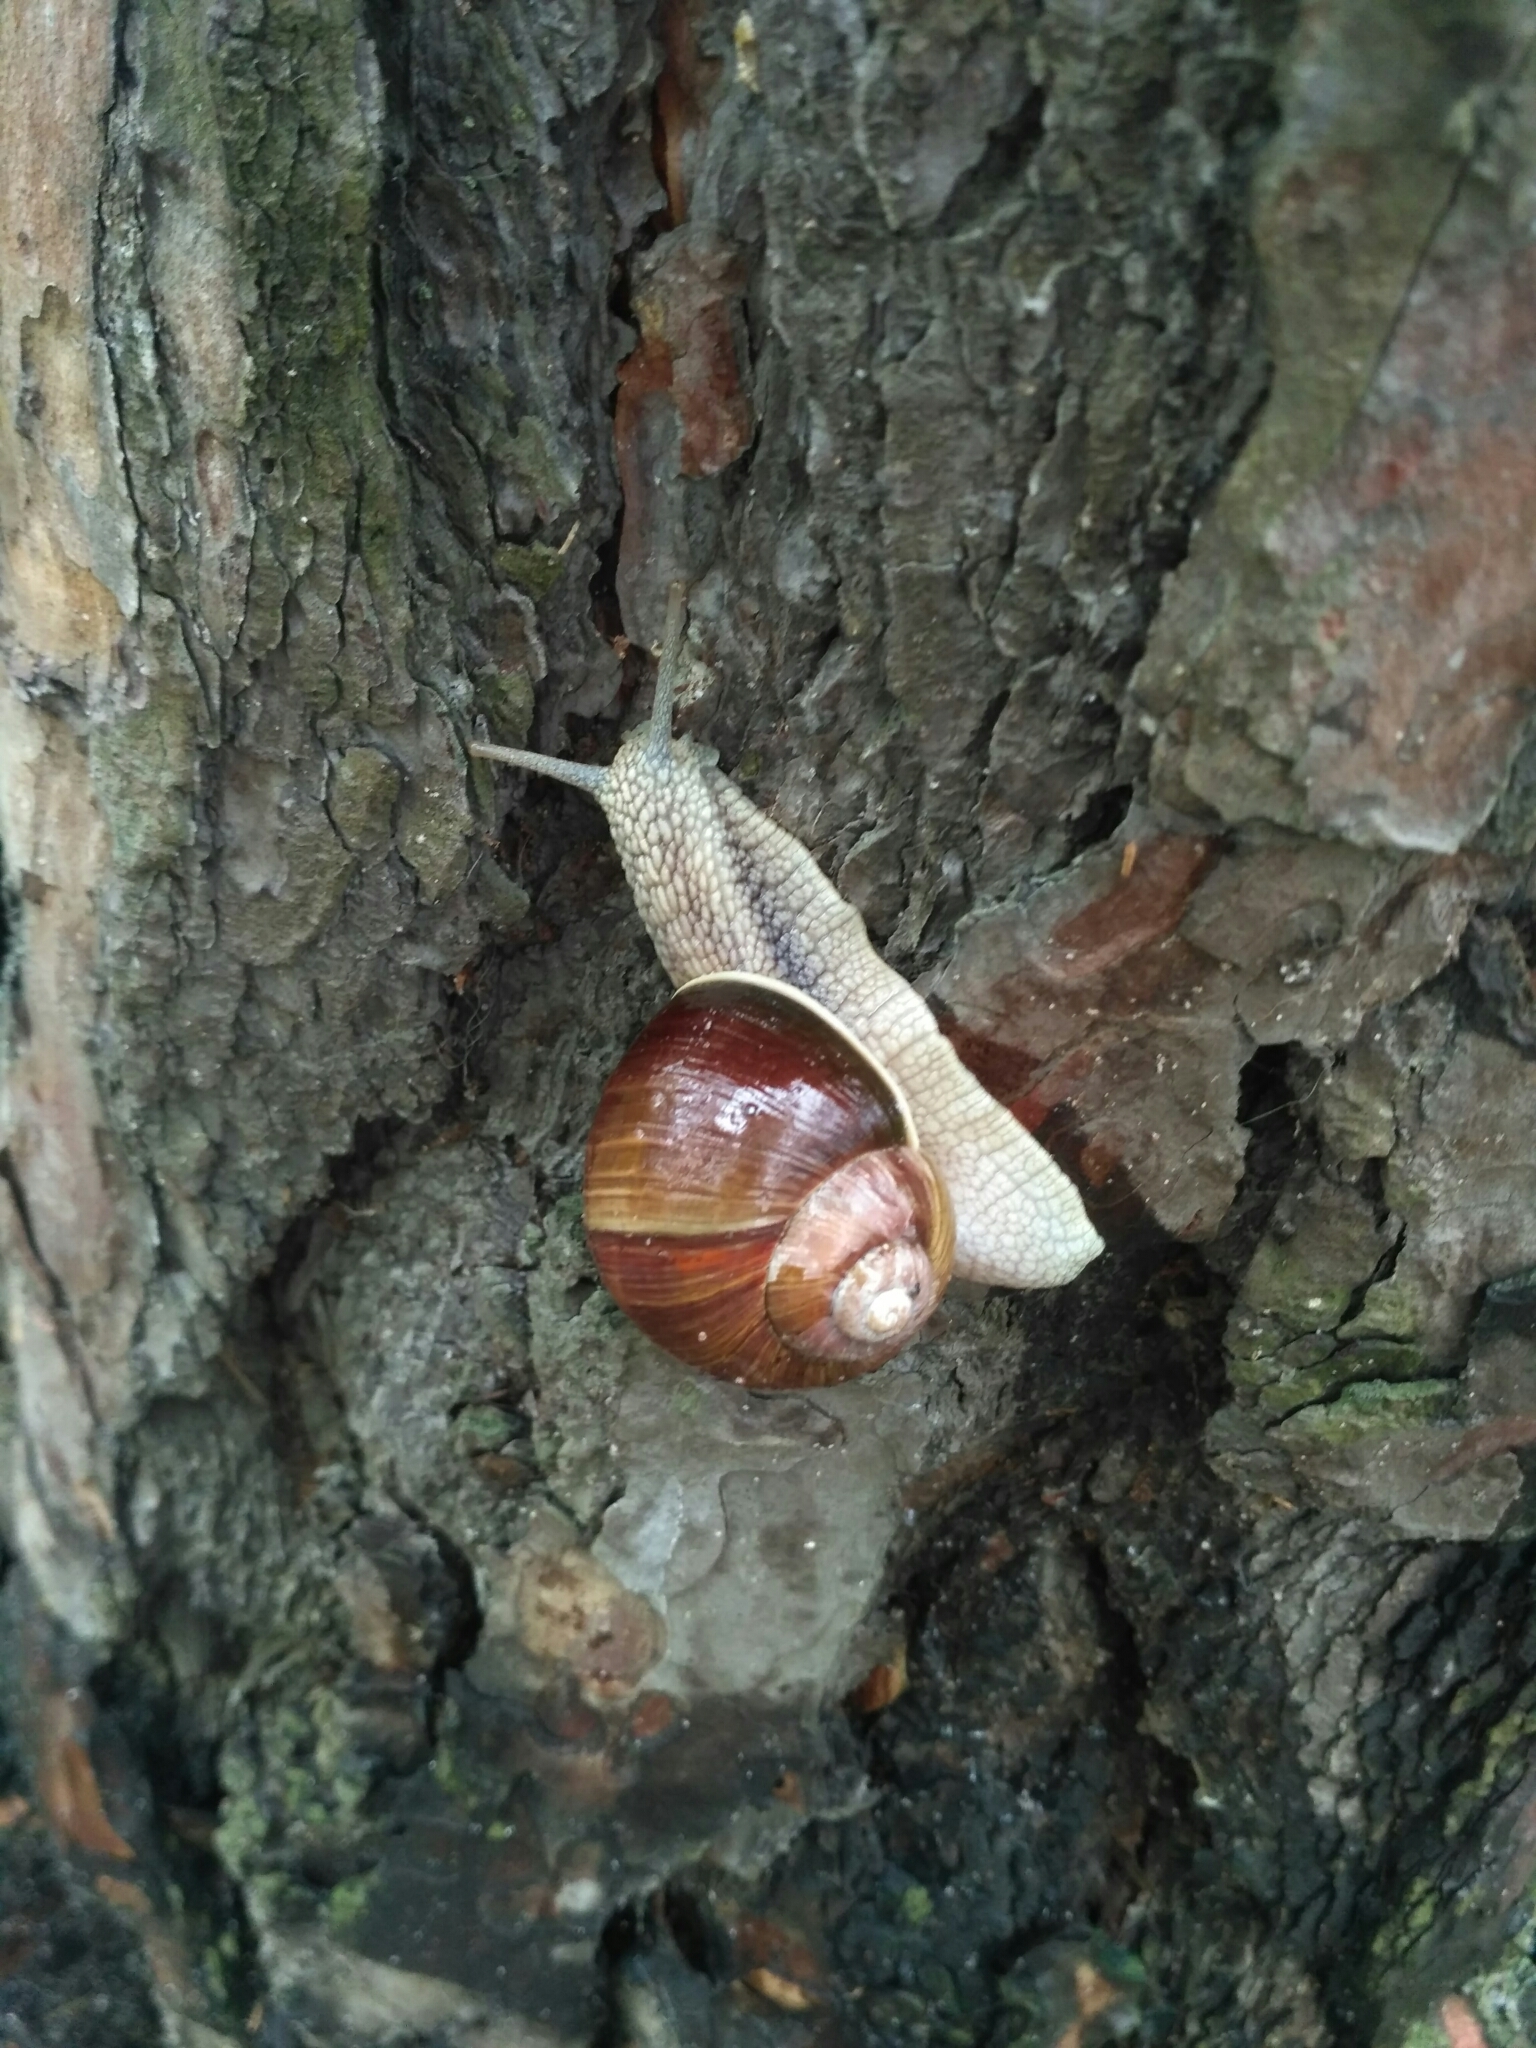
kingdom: Animalia
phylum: Mollusca
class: Gastropoda
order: Stylommatophora
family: Helicidae
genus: Helix
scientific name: Helix pomatia
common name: Roman snail
